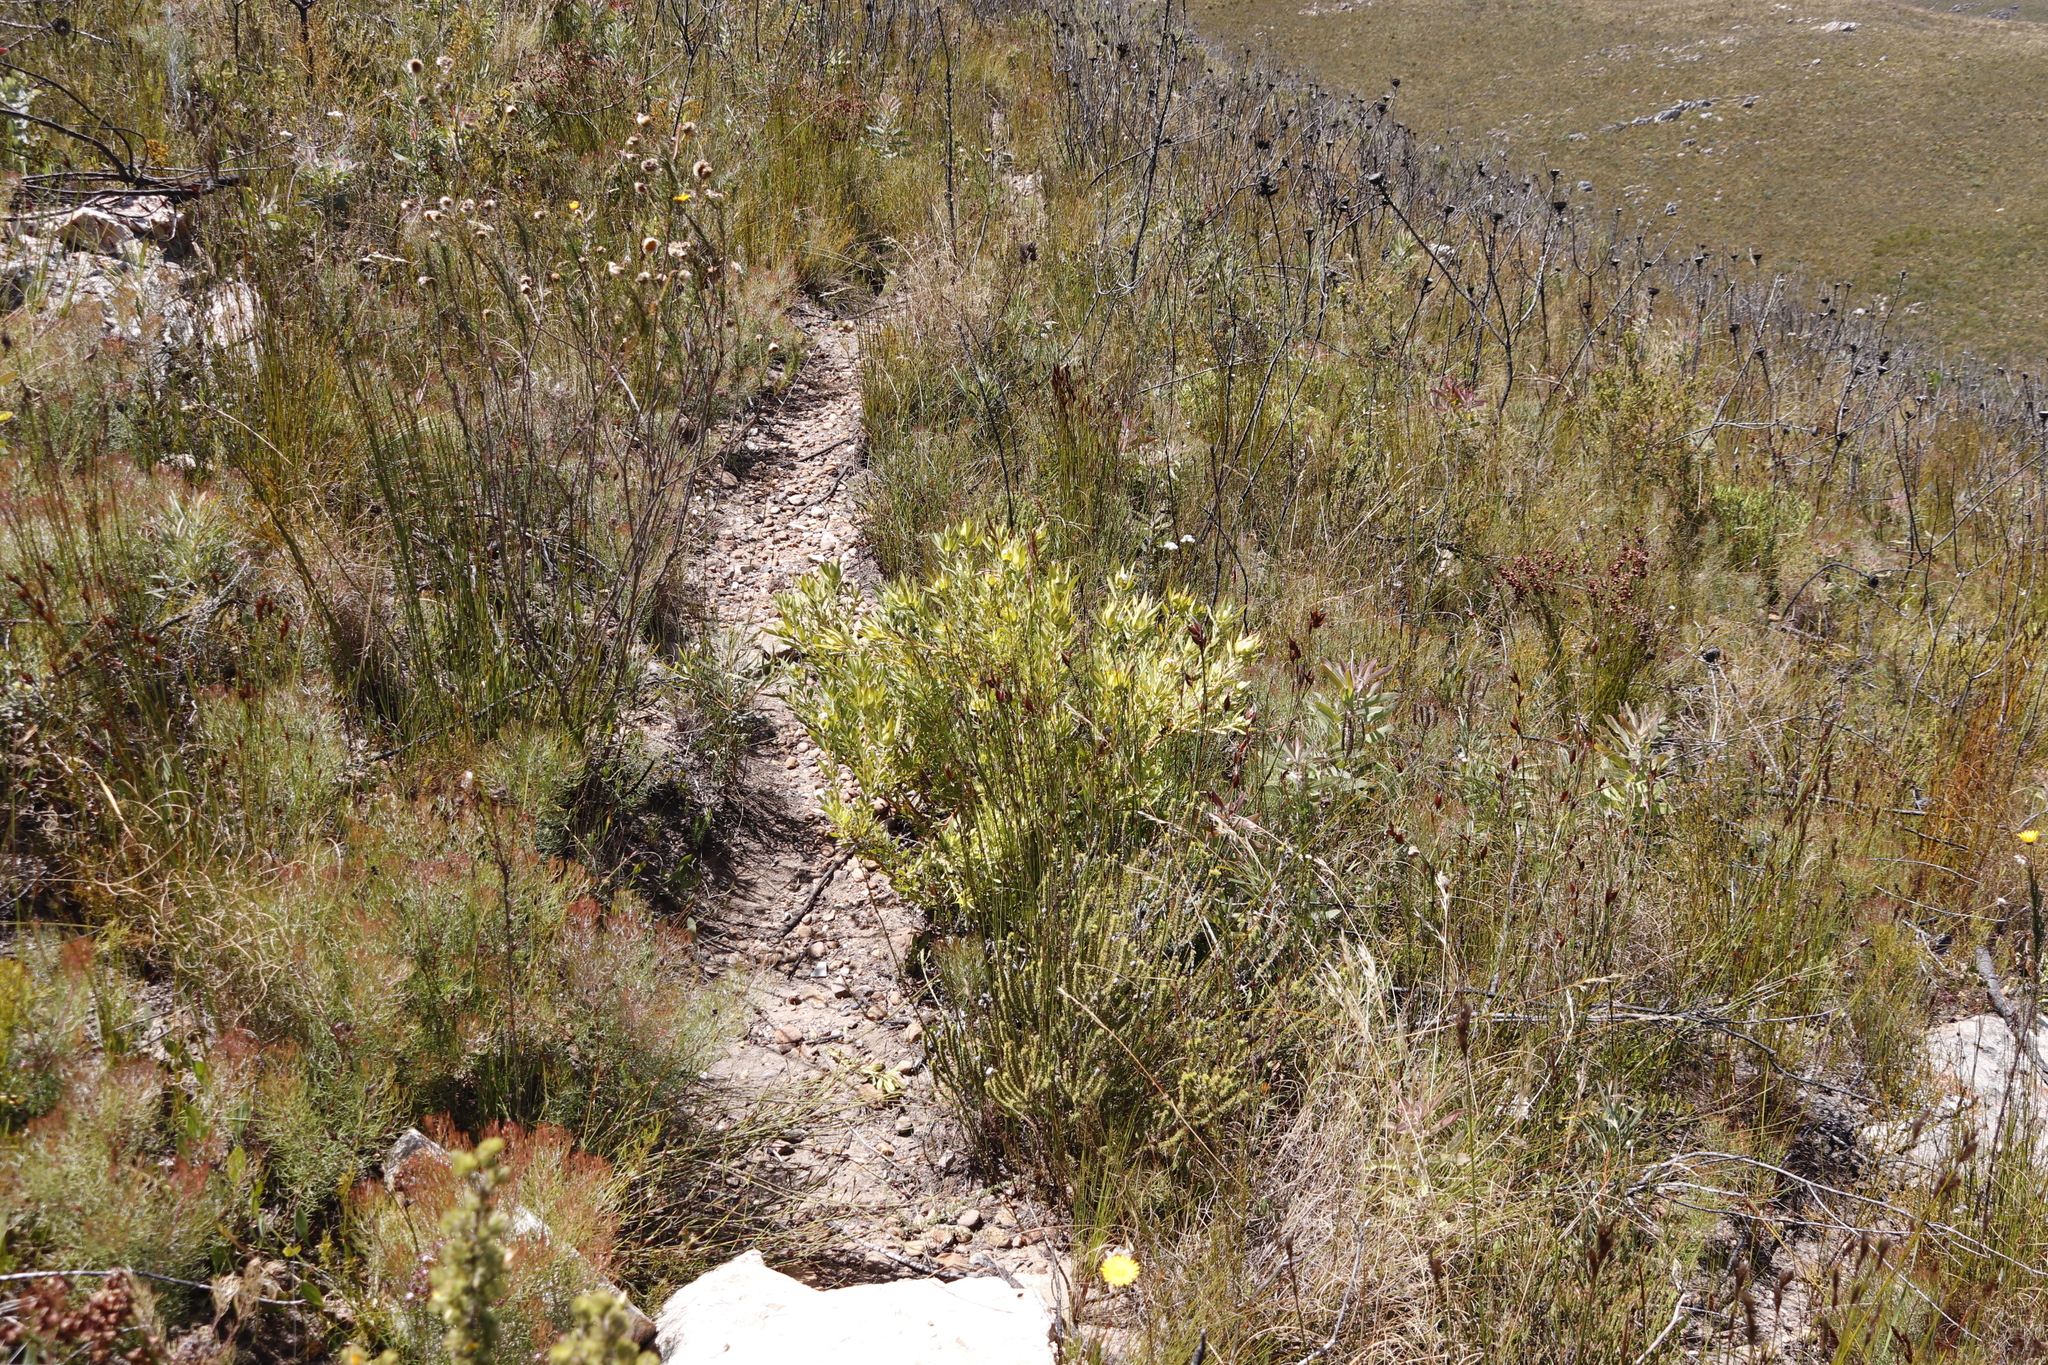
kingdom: Plantae
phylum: Tracheophyta
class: Magnoliopsida
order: Proteales
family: Proteaceae
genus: Leucadendron
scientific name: Leucadendron salignum
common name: Common sunshine conebush
